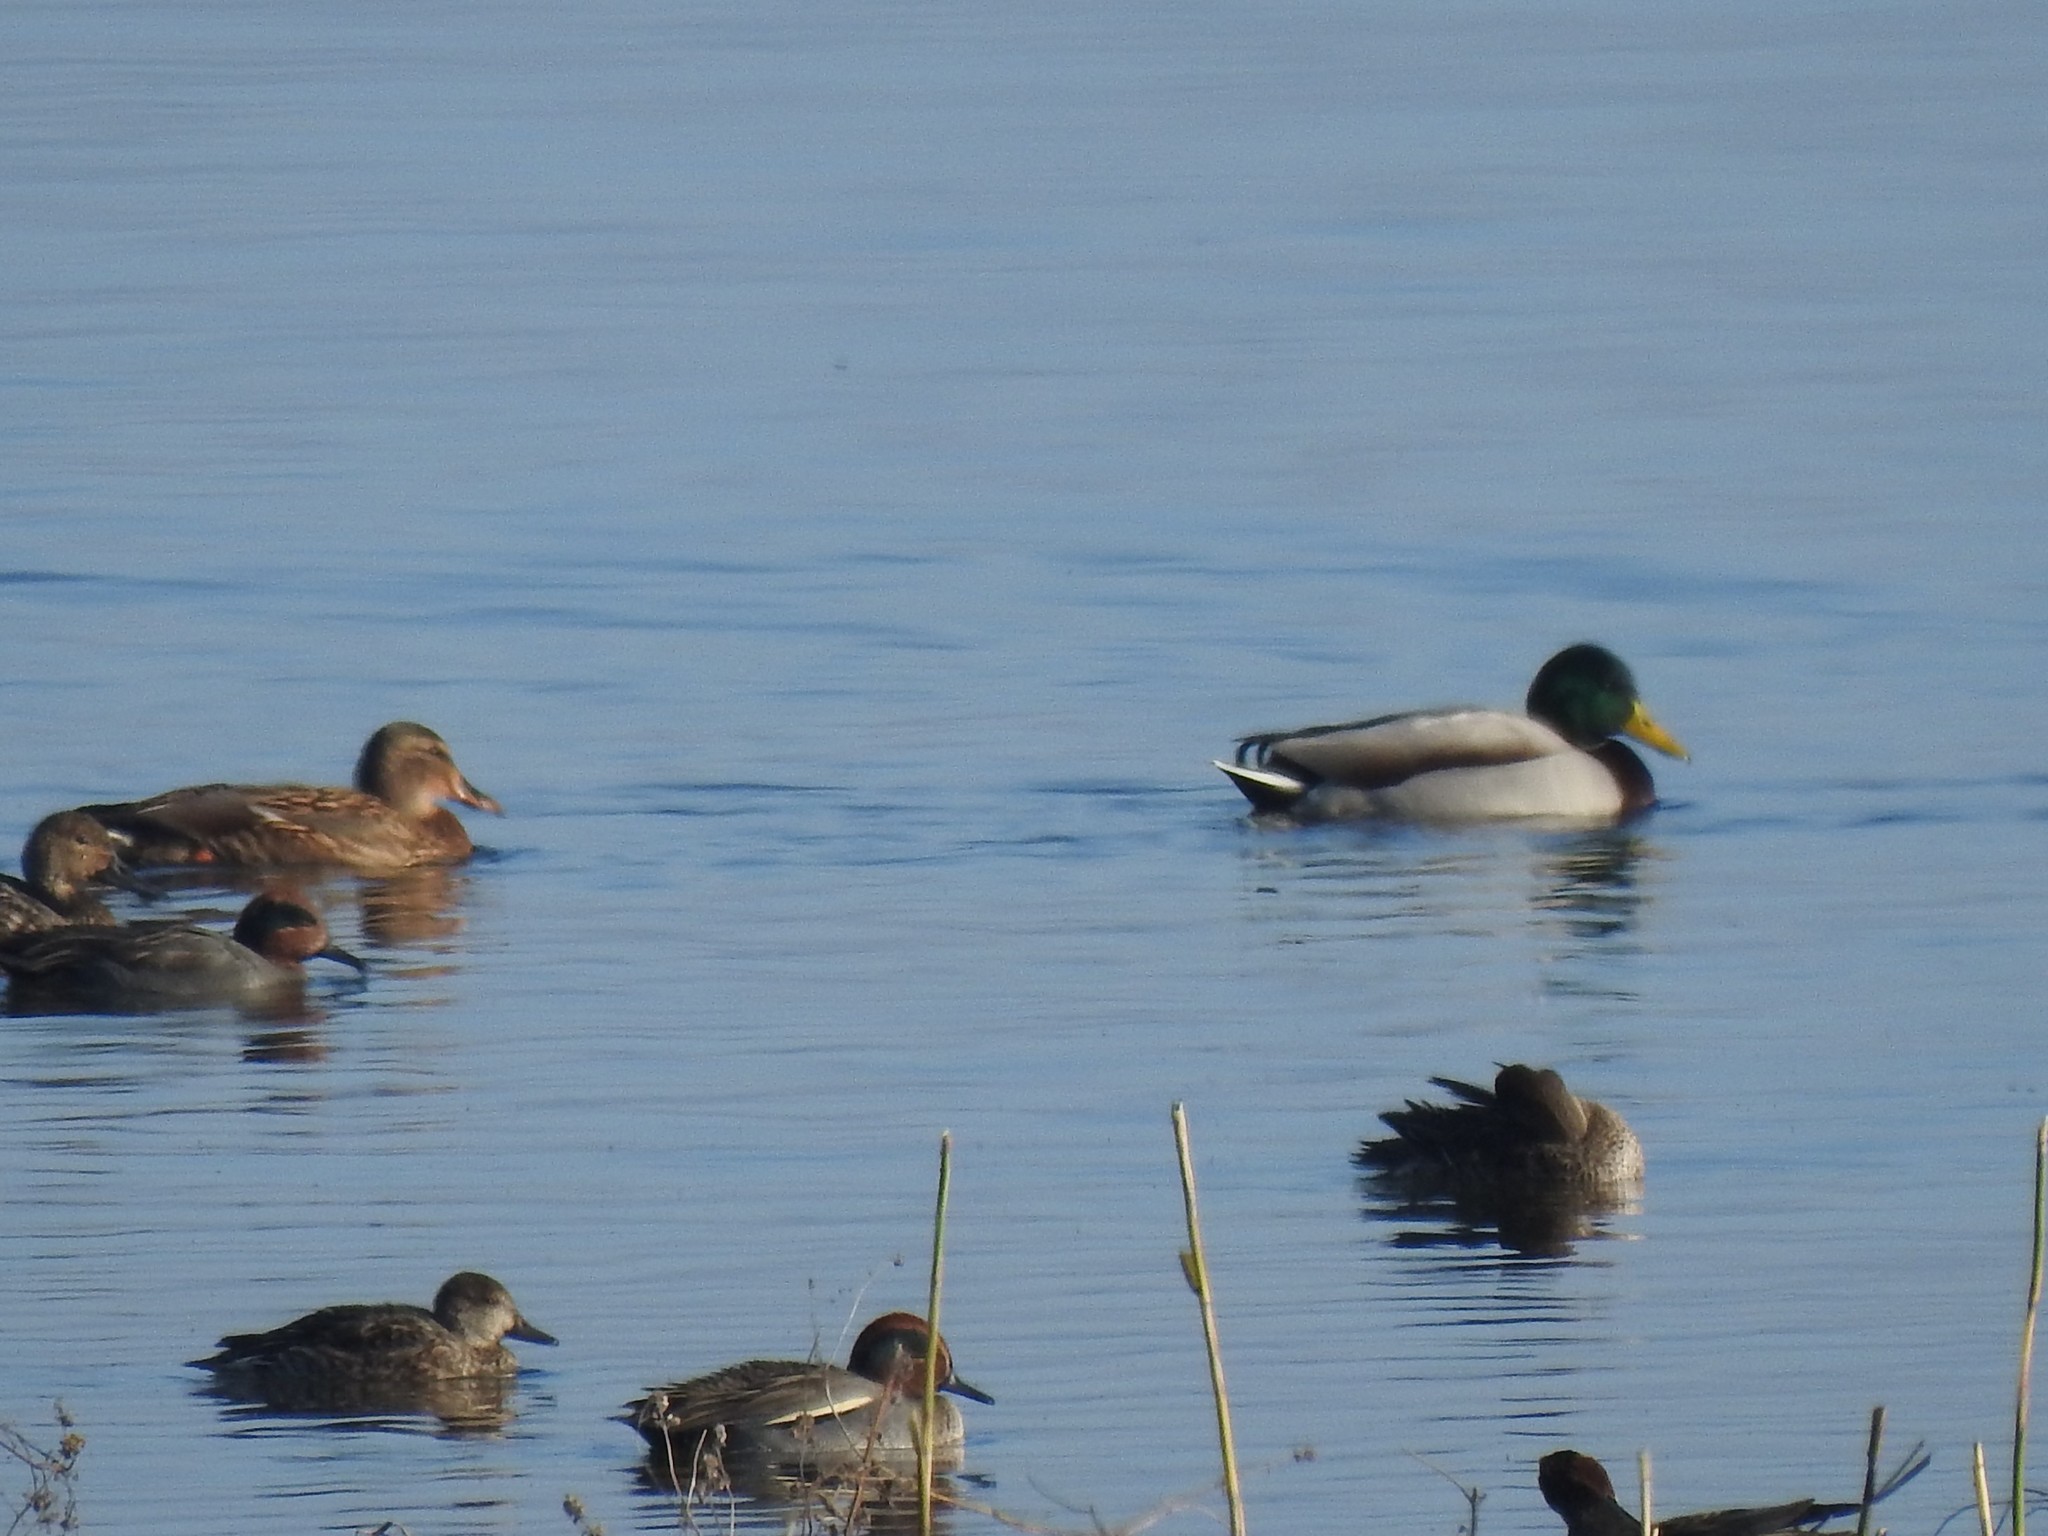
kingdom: Animalia
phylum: Chordata
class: Aves
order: Anseriformes
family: Anatidae
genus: Anas
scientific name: Anas platyrhynchos
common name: Mallard
